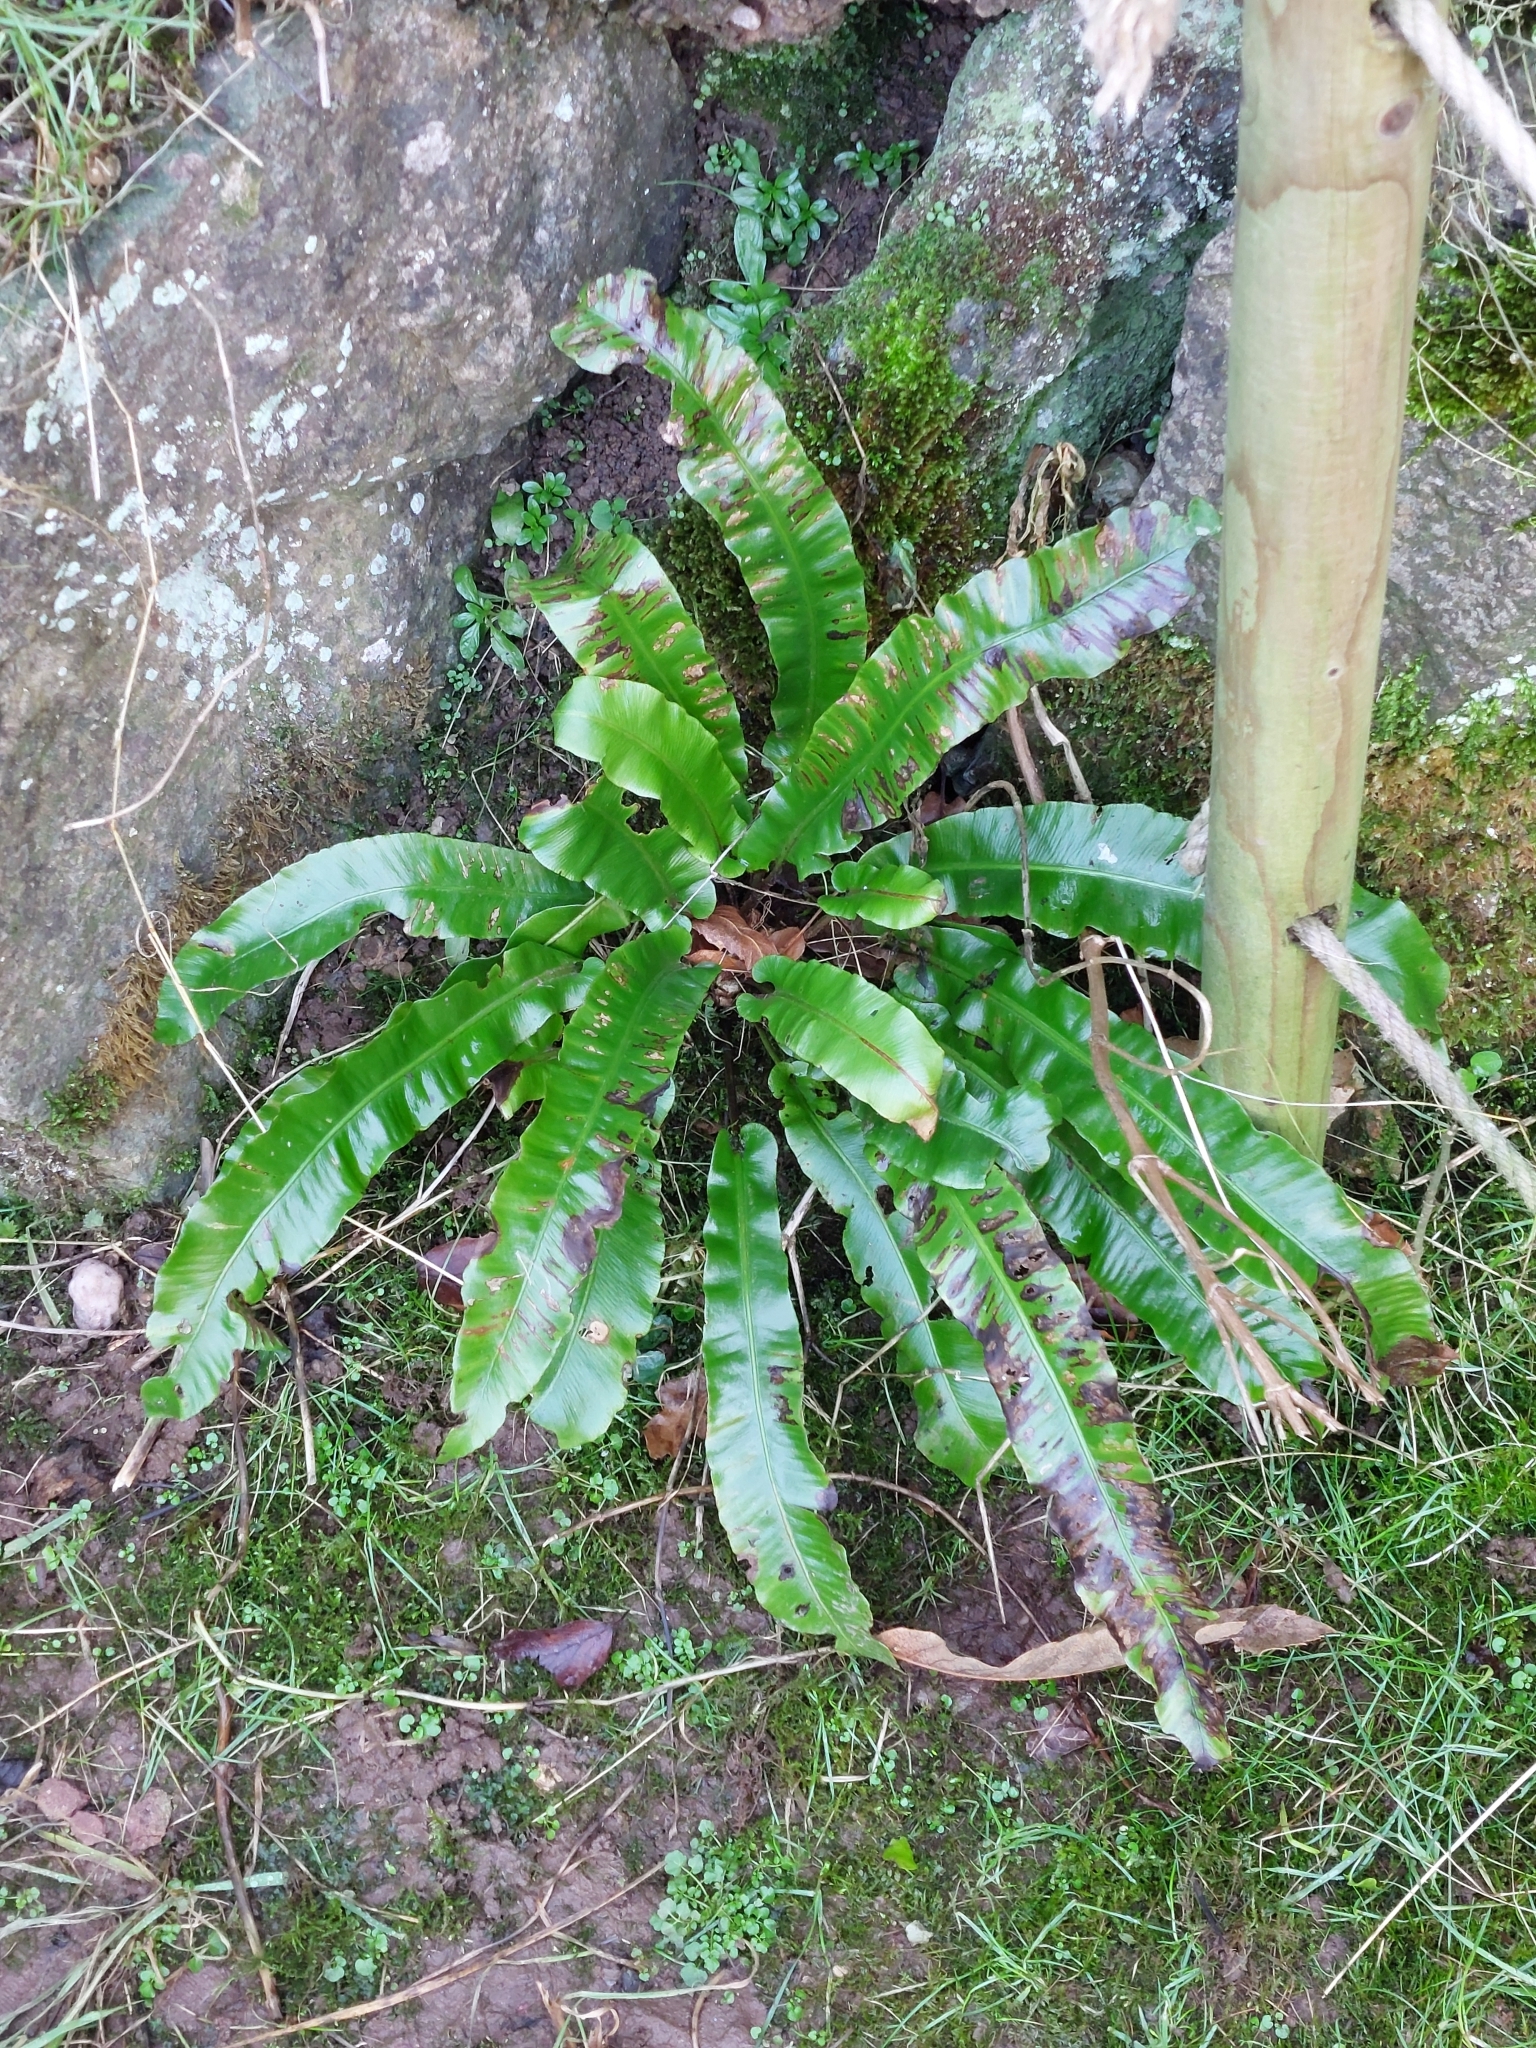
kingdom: Plantae
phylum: Tracheophyta
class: Polypodiopsida
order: Polypodiales
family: Aspleniaceae
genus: Asplenium
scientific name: Asplenium scolopendrium
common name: Hart's-tongue fern
